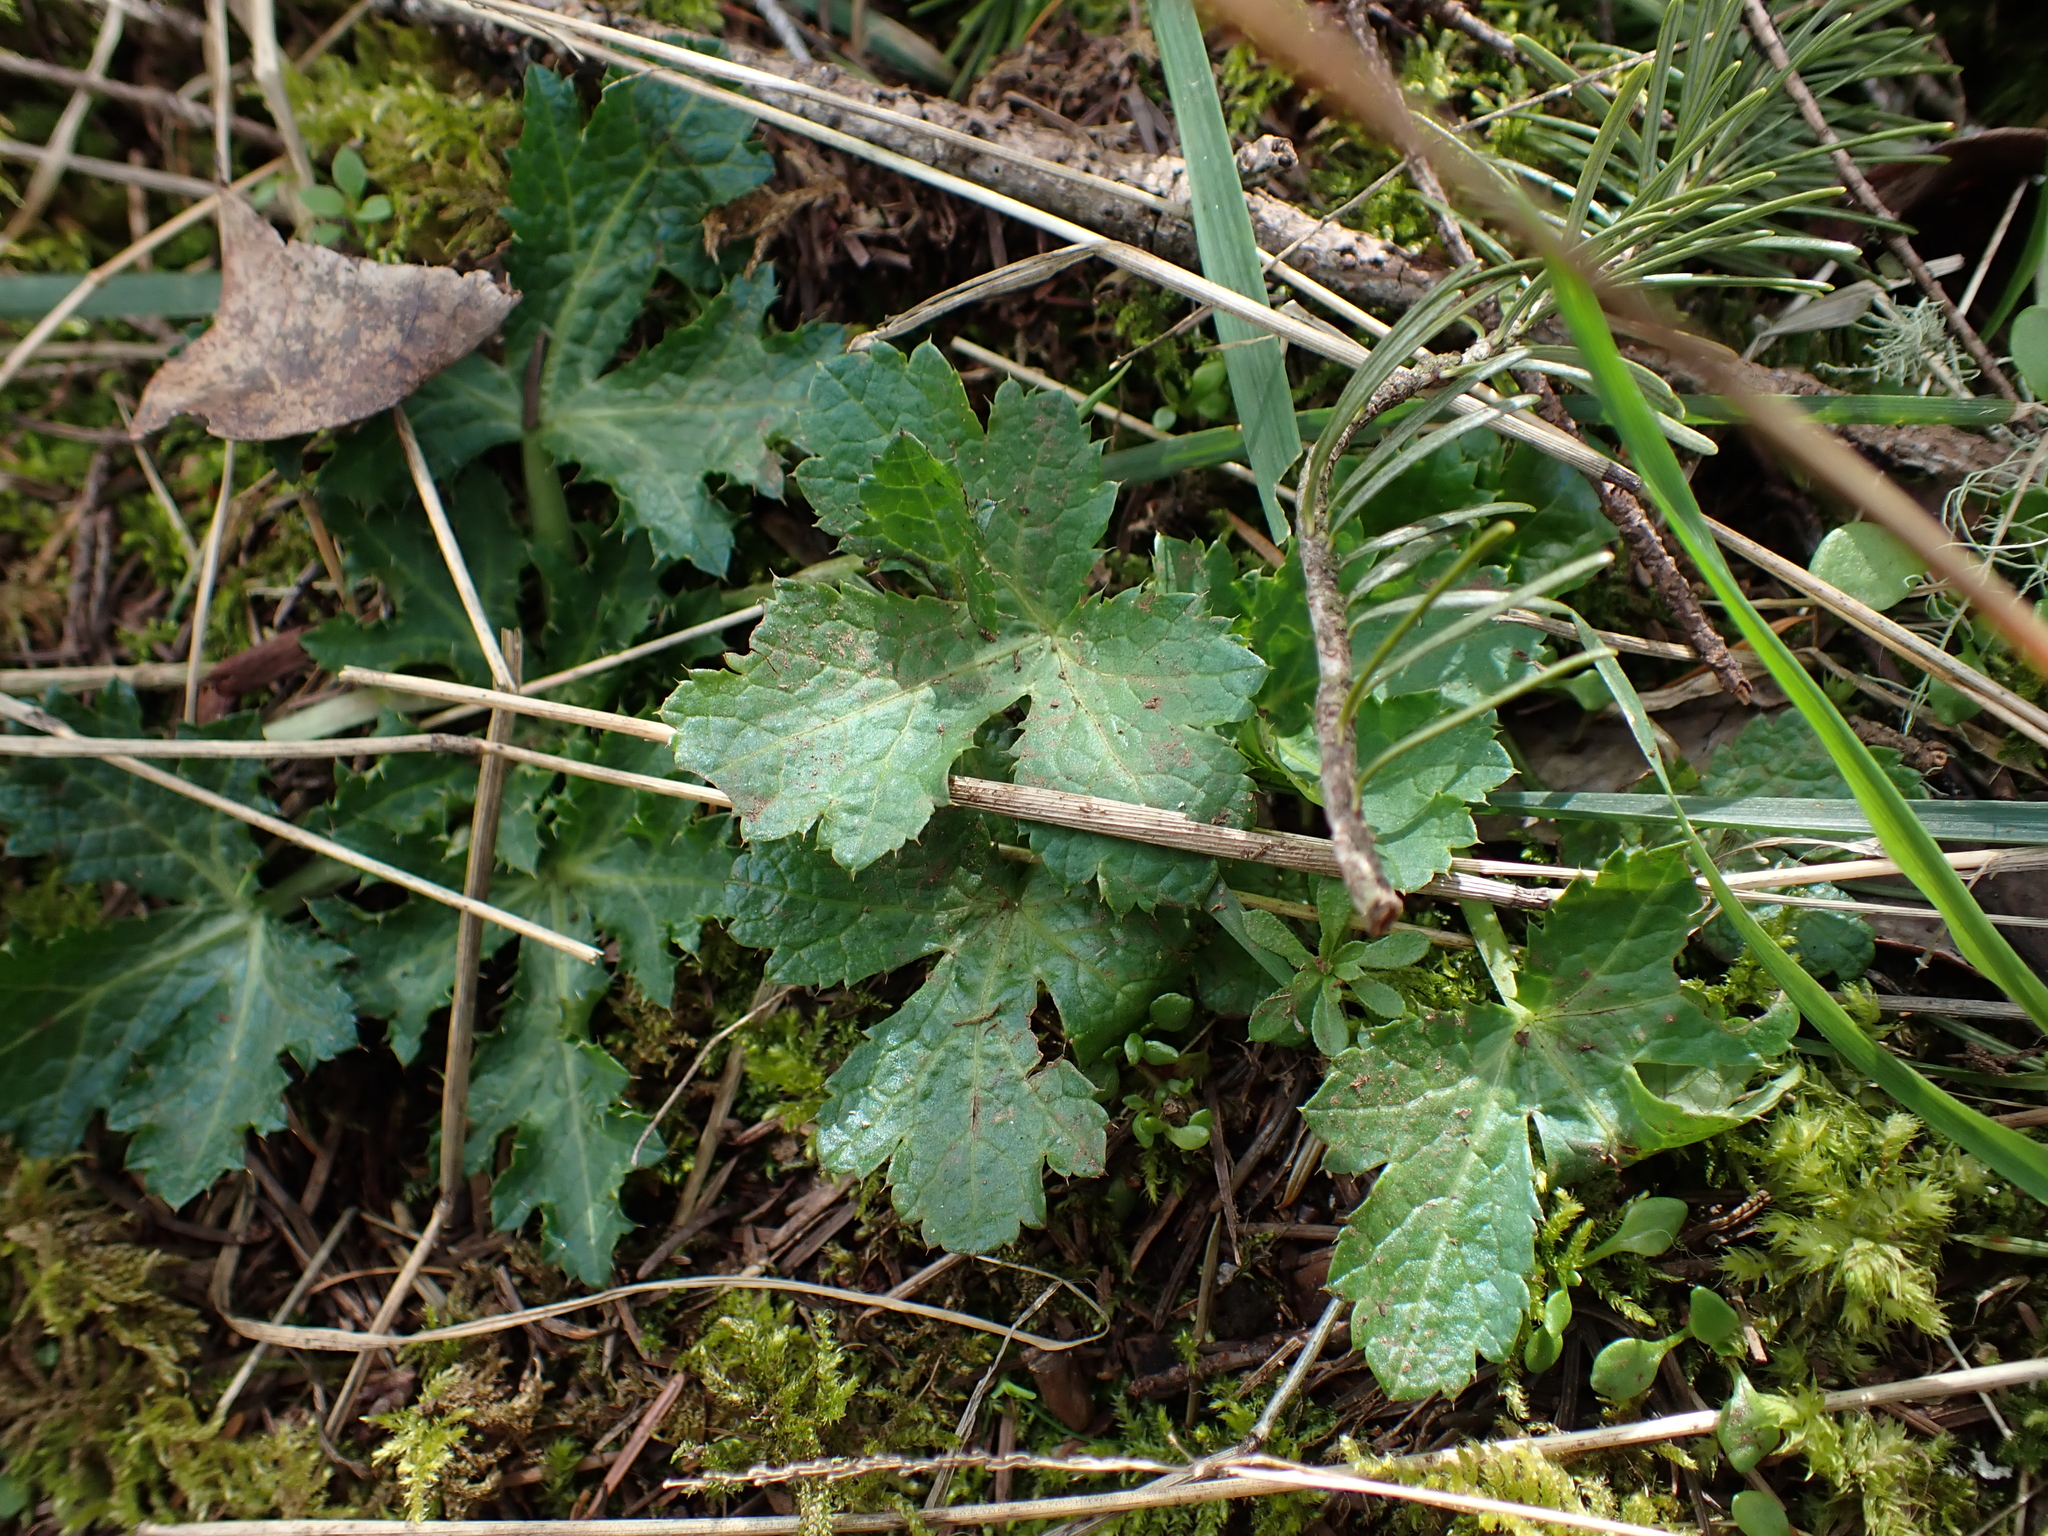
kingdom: Plantae
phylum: Tracheophyta
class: Magnoliopsida
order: Apiales
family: Apiaceae
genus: Sanicula
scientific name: Sanicula crassicaulis
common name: Western snakeroot
